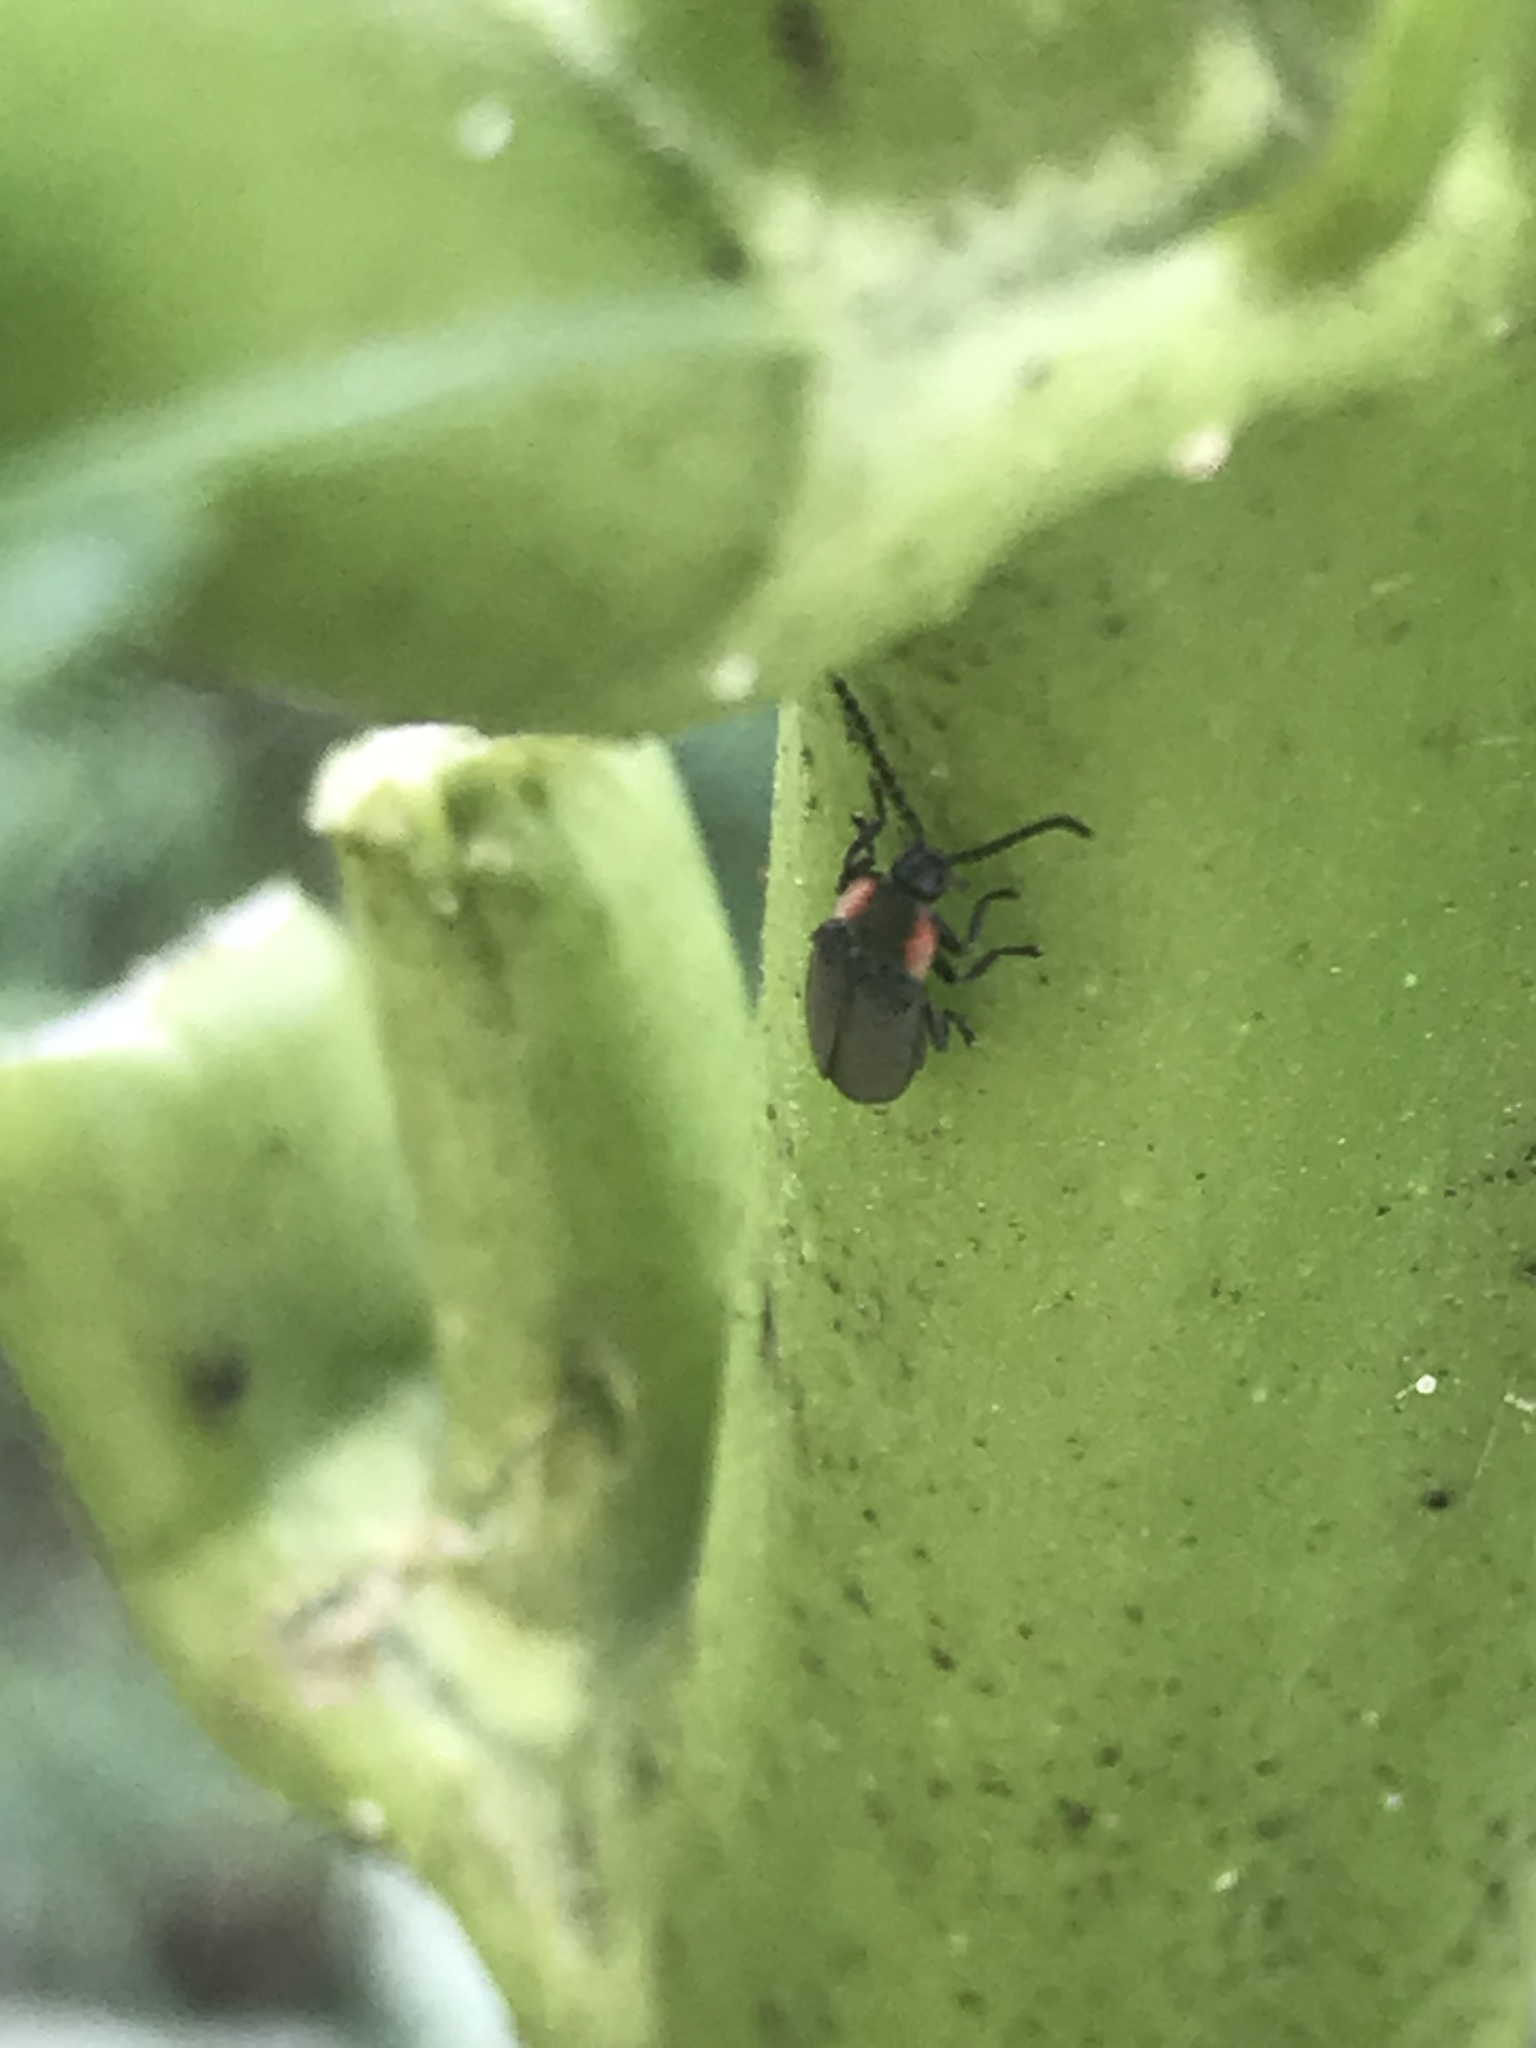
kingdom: Animalia
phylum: Arthropoda
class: Insecta
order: Coleoptera
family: Lampyridae
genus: Pyropyga
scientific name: Pyropyga
